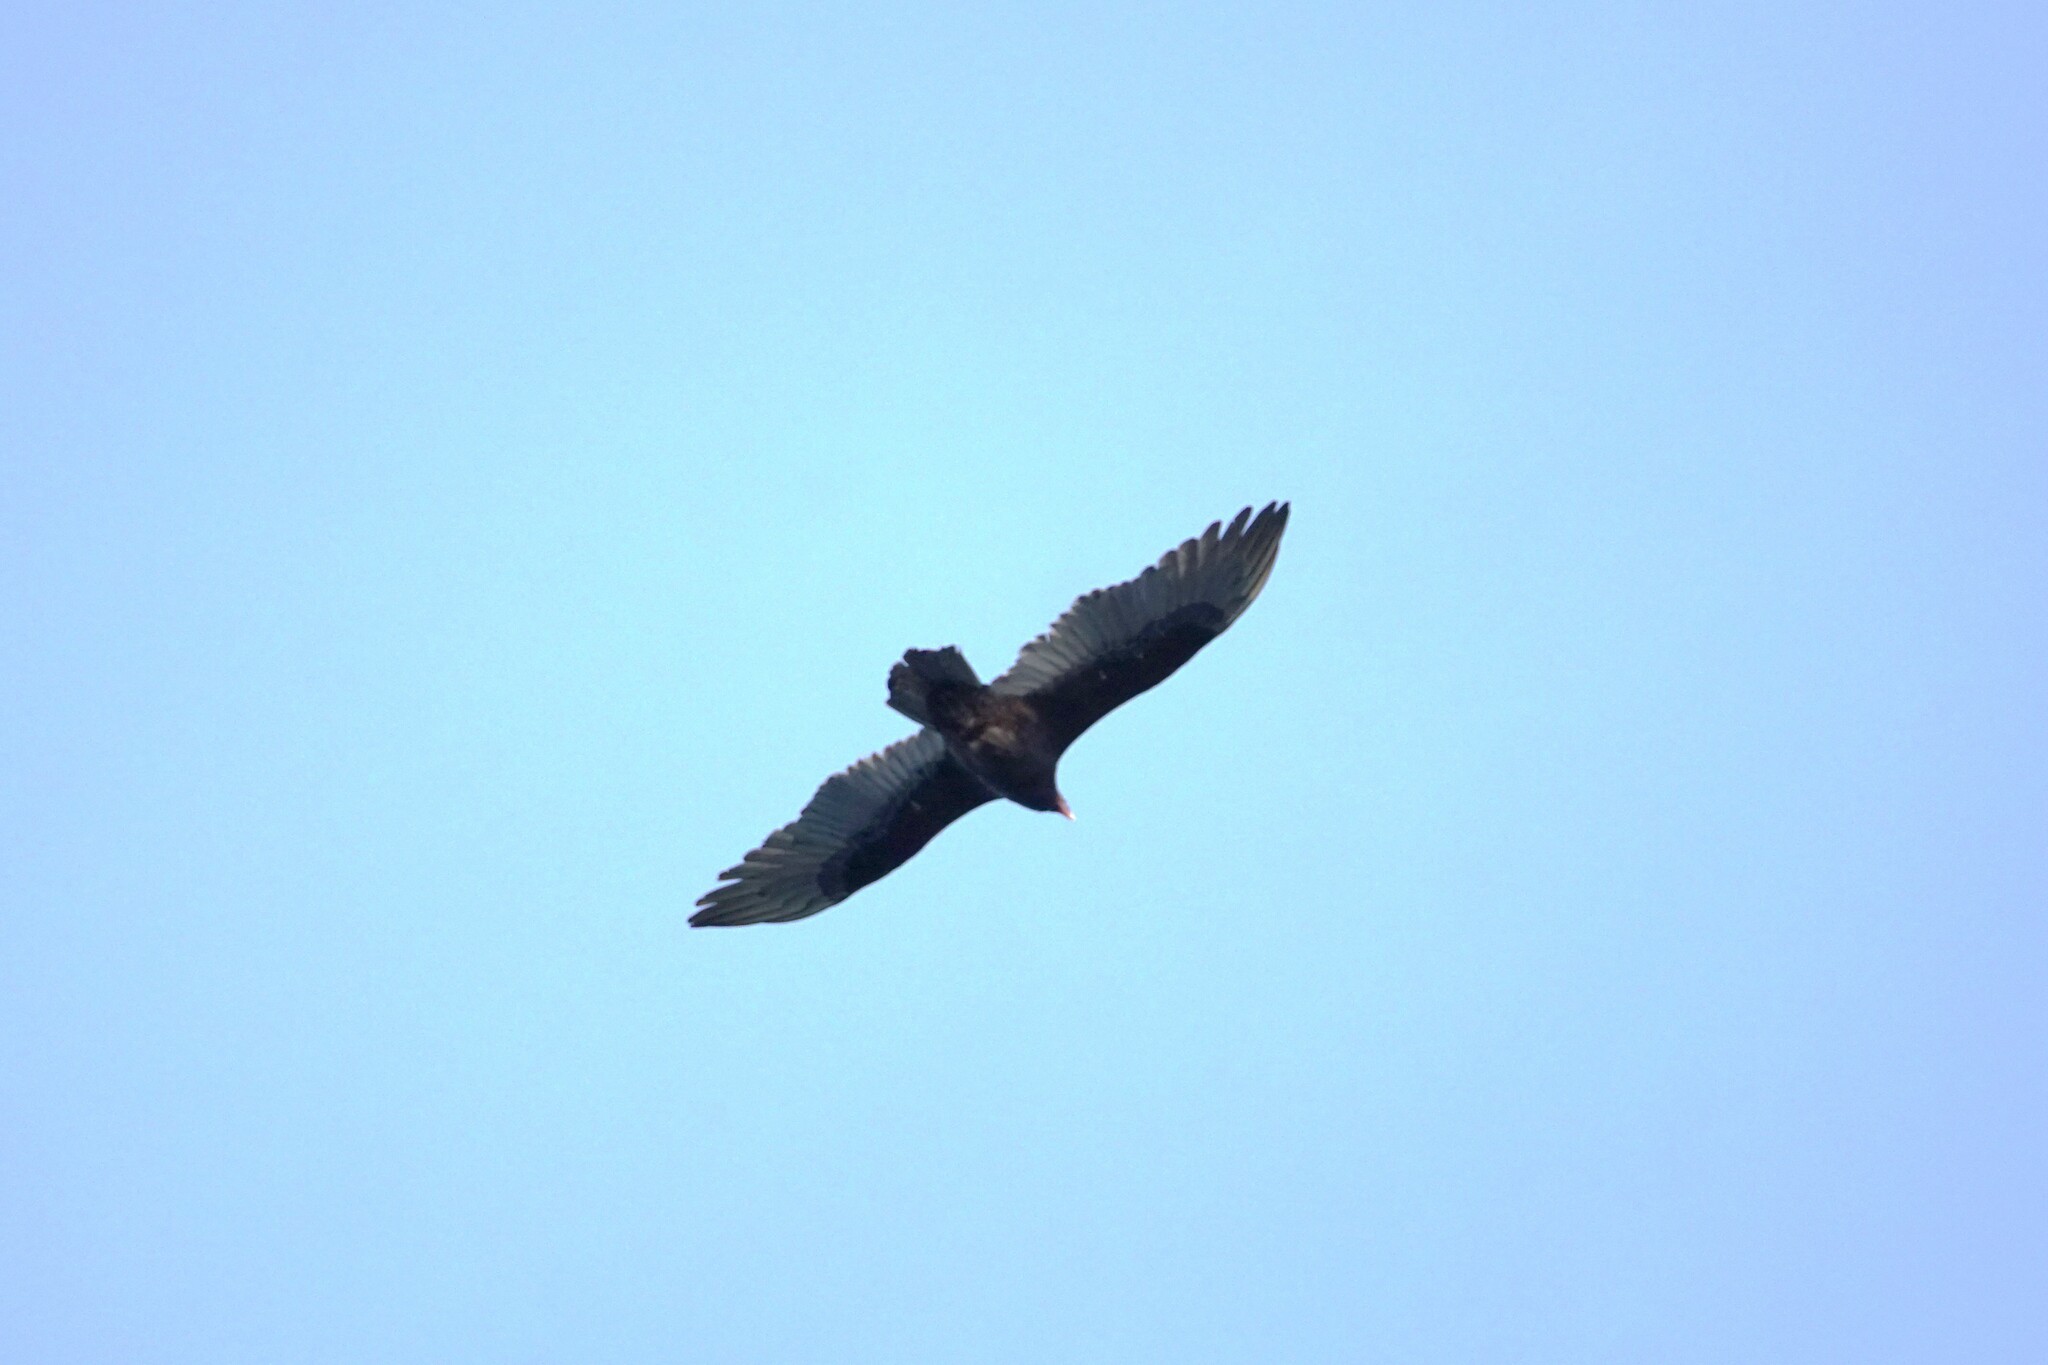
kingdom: Animalia
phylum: Chordata
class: Aves
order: Accipitriformes
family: Cathartidae
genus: Cathartes
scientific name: Cathartes aura
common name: Turkey vulture
